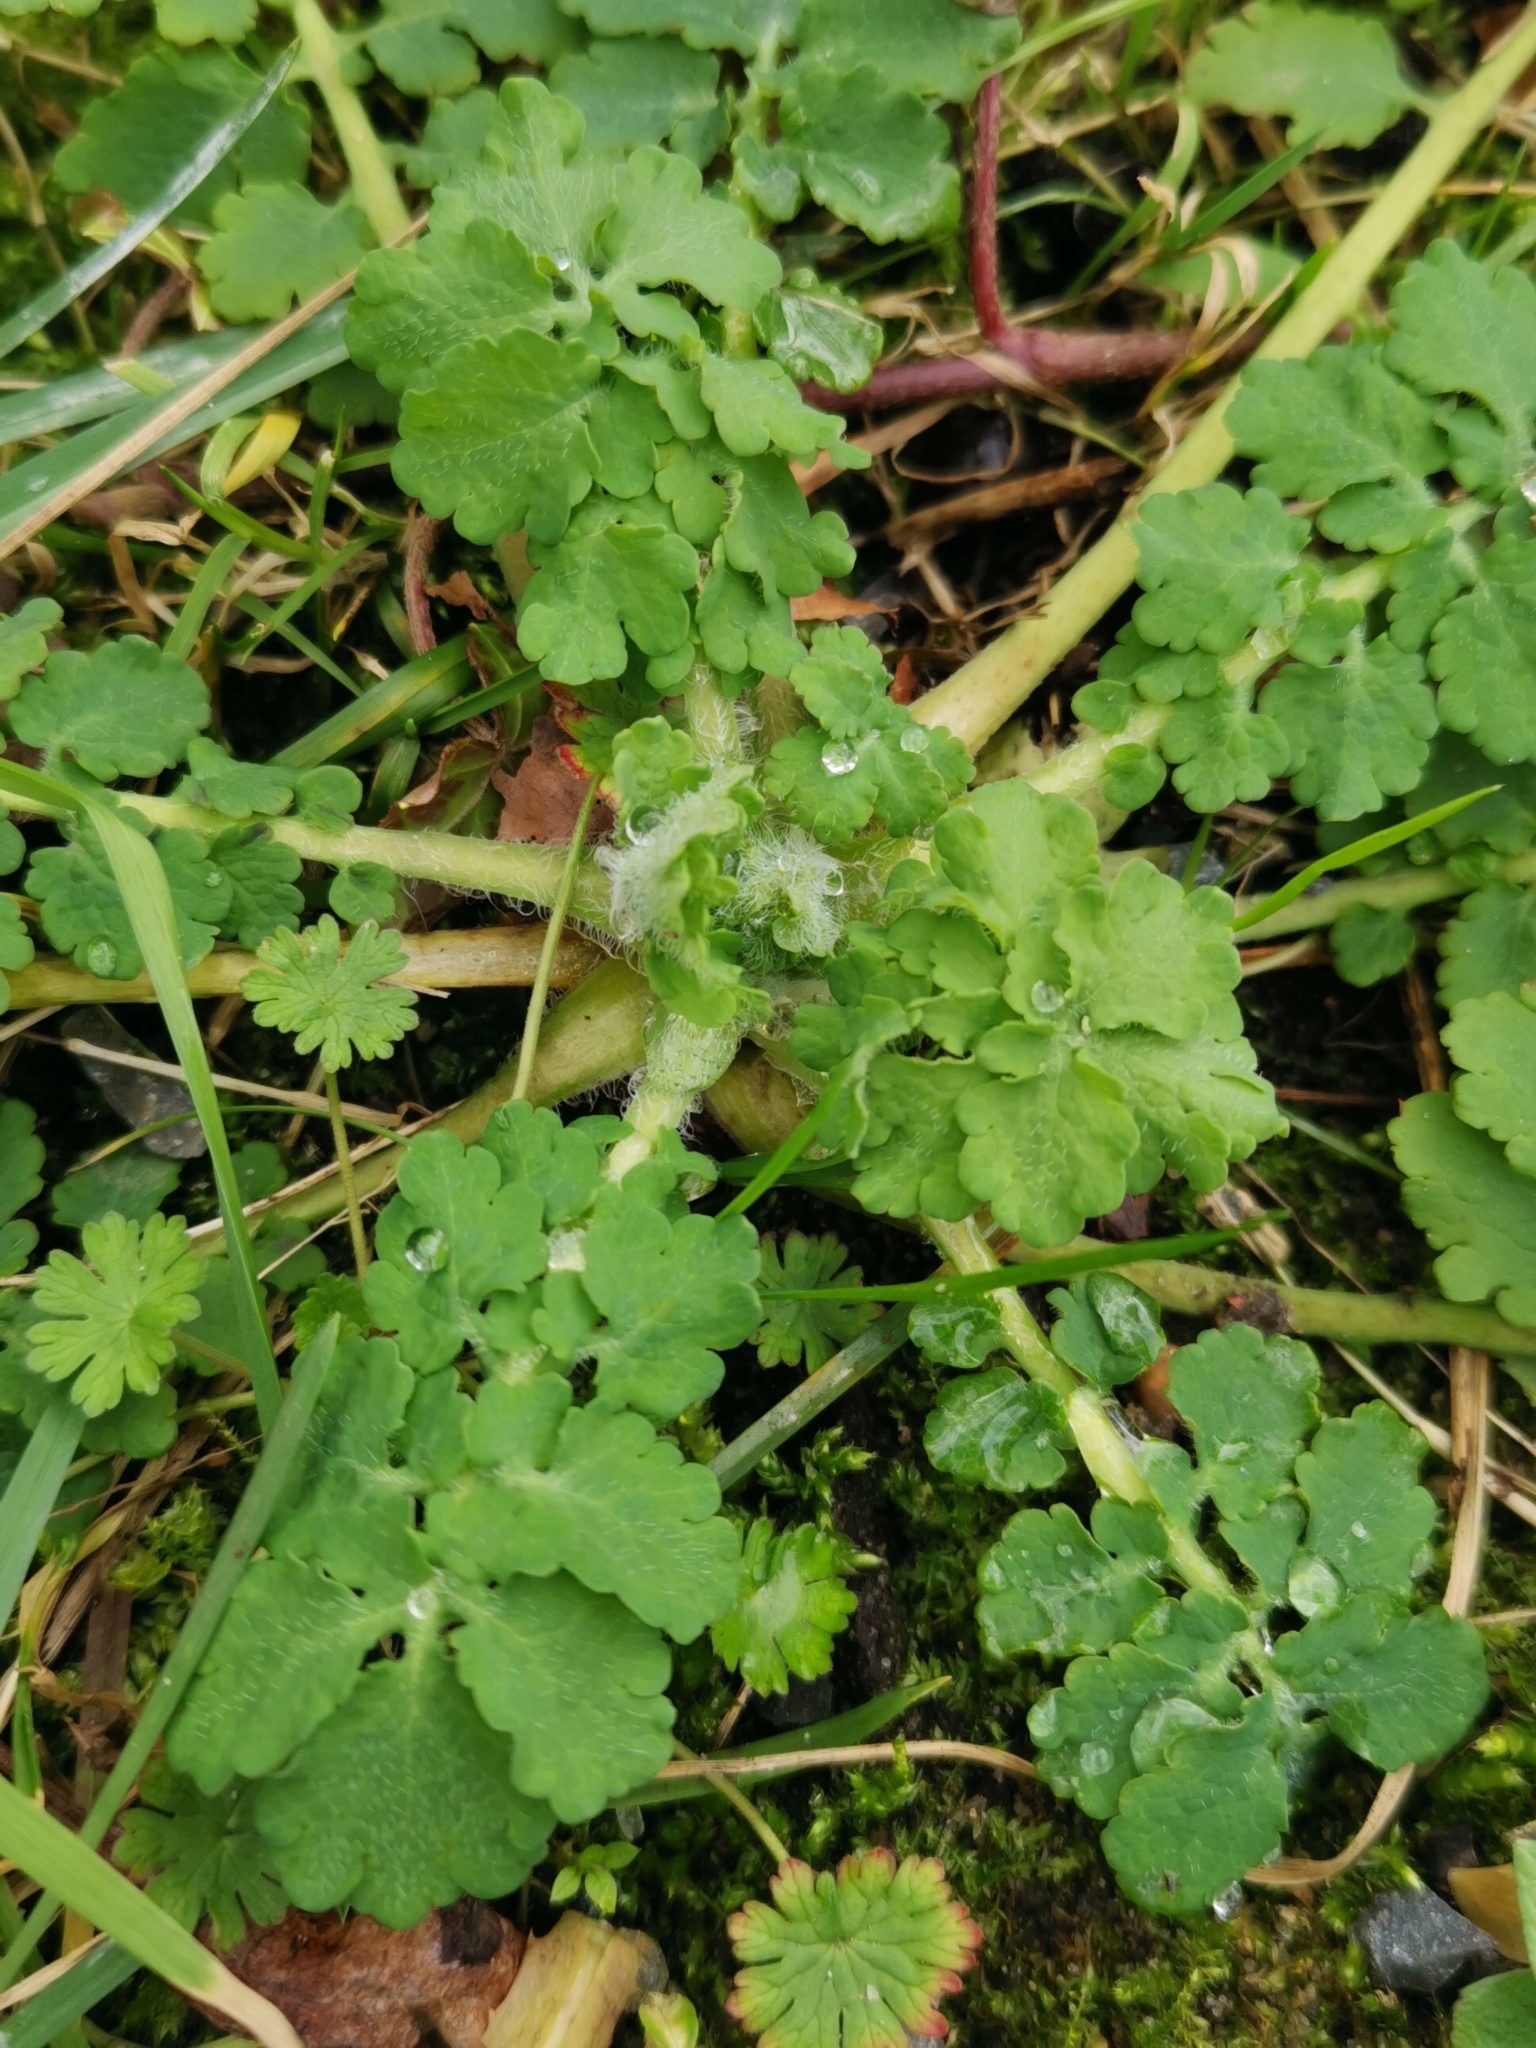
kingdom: Plantae
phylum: Tracheophyta
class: Magnoliopsida
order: Ranunculales
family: Papaveraceae
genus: Chelidonium
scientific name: Chelidonium majus
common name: Greater celandine
